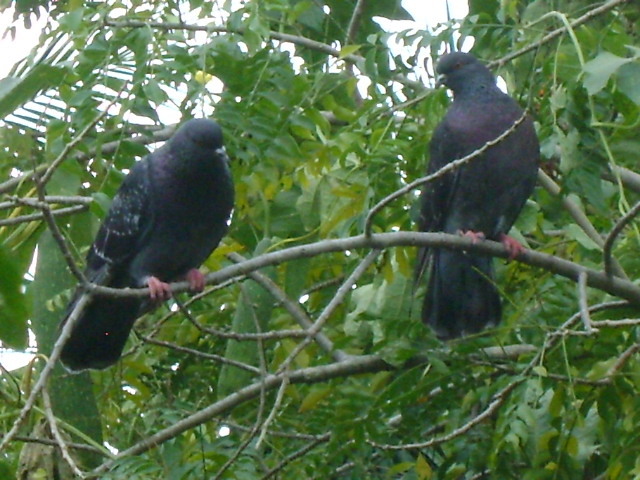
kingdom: Animalia
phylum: Chordata
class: Aves
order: Columbiformes
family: Columbidae
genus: Columba
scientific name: Columba livia
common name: Rock pigeon
